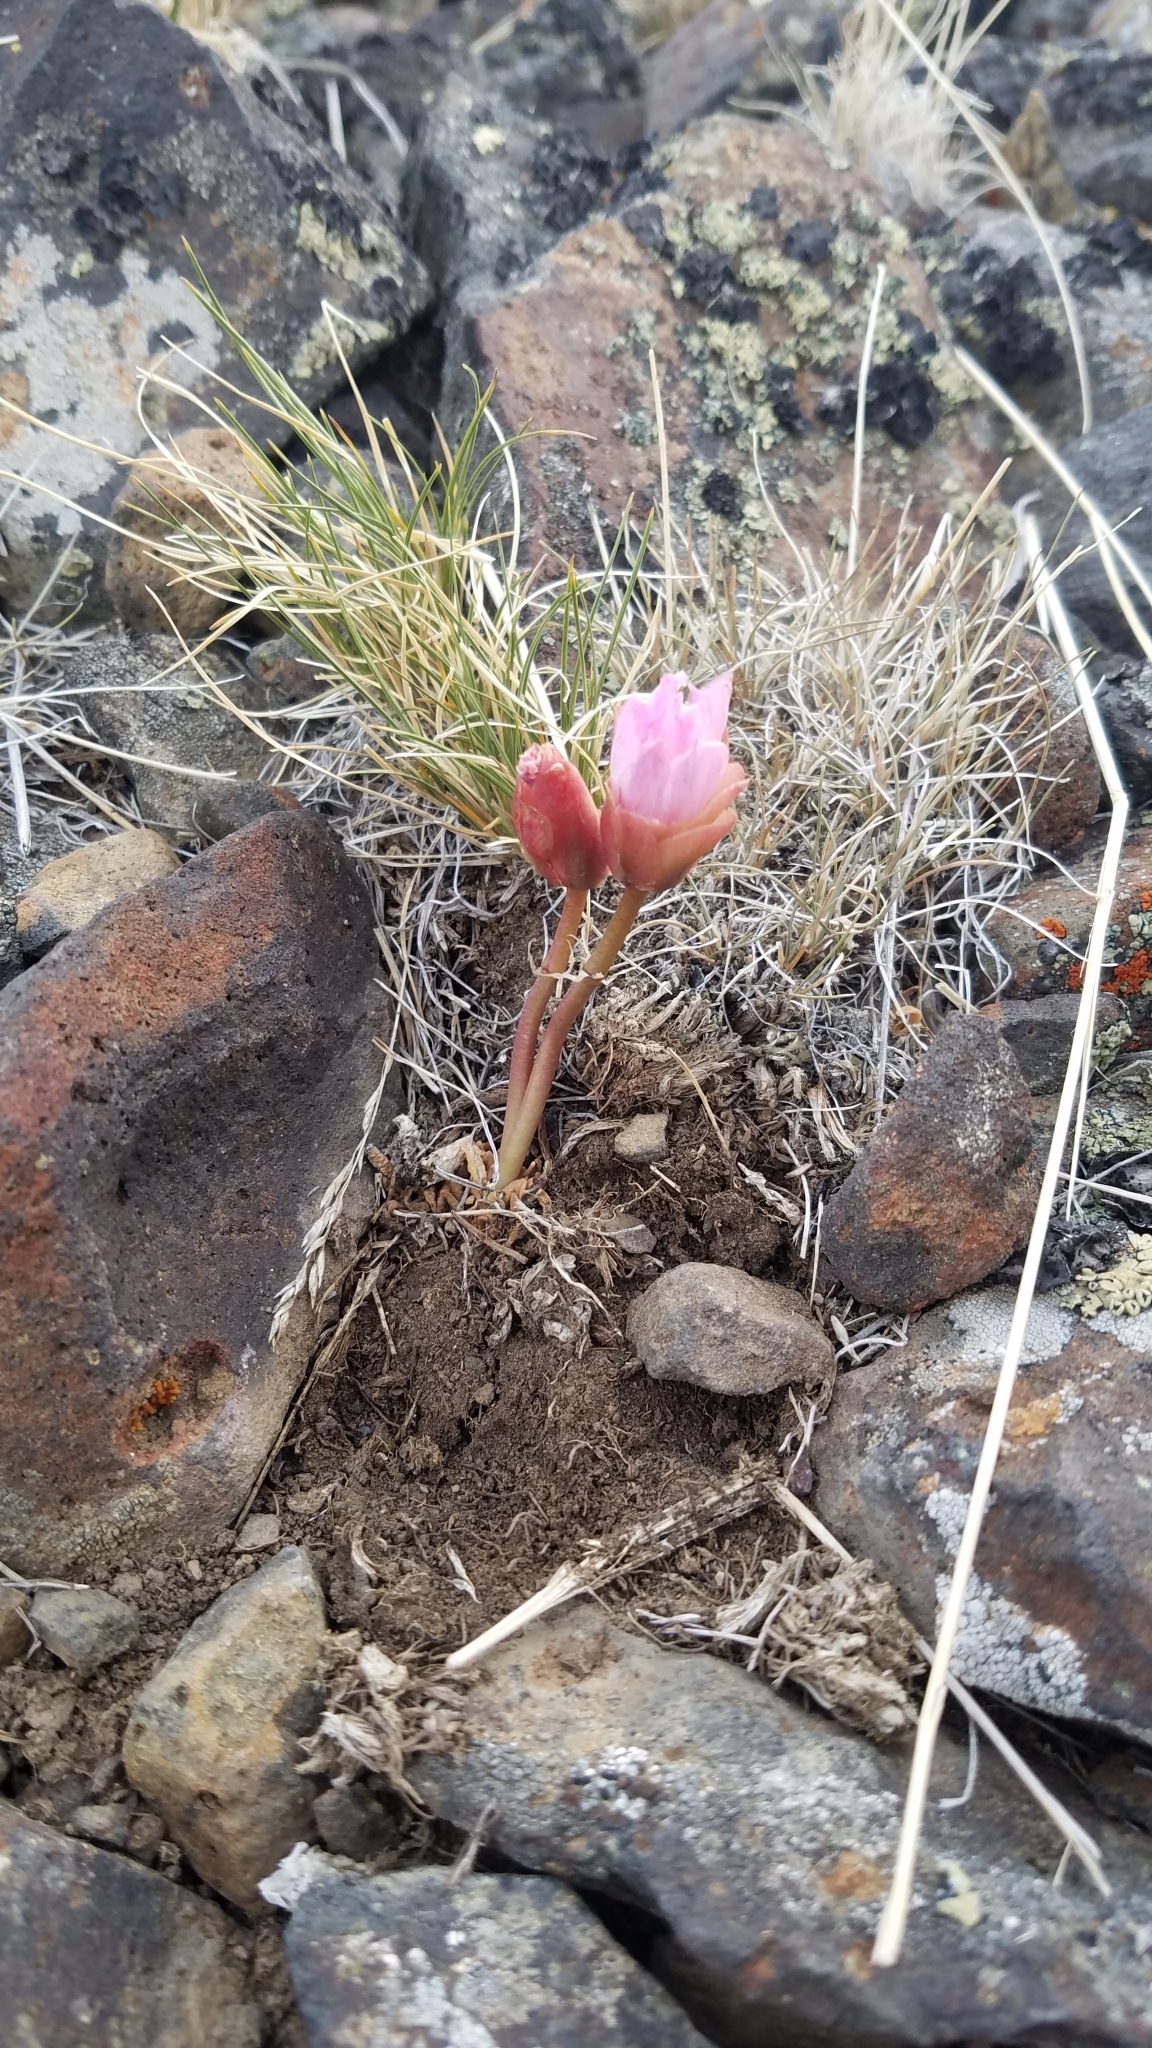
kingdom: Plantae
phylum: Tracheophyta
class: Magnoliopsida
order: Caryophyllales
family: Montiaceae
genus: Lewisia
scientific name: Lewisia rediviva
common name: Bitter-root
